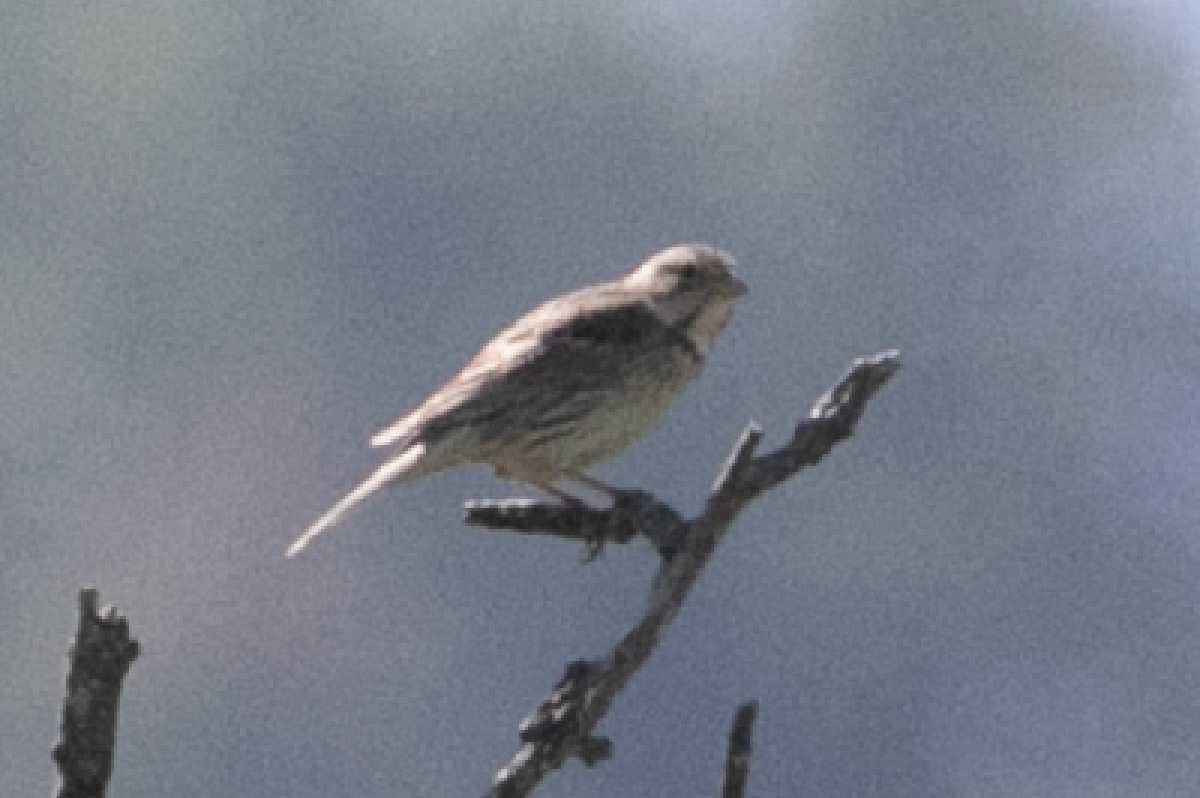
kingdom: Animalia
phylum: Chordata
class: Aves
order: Passeriformes
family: Emberizidae
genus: Emberiza
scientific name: Emberiza calandra
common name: Corn bunting
